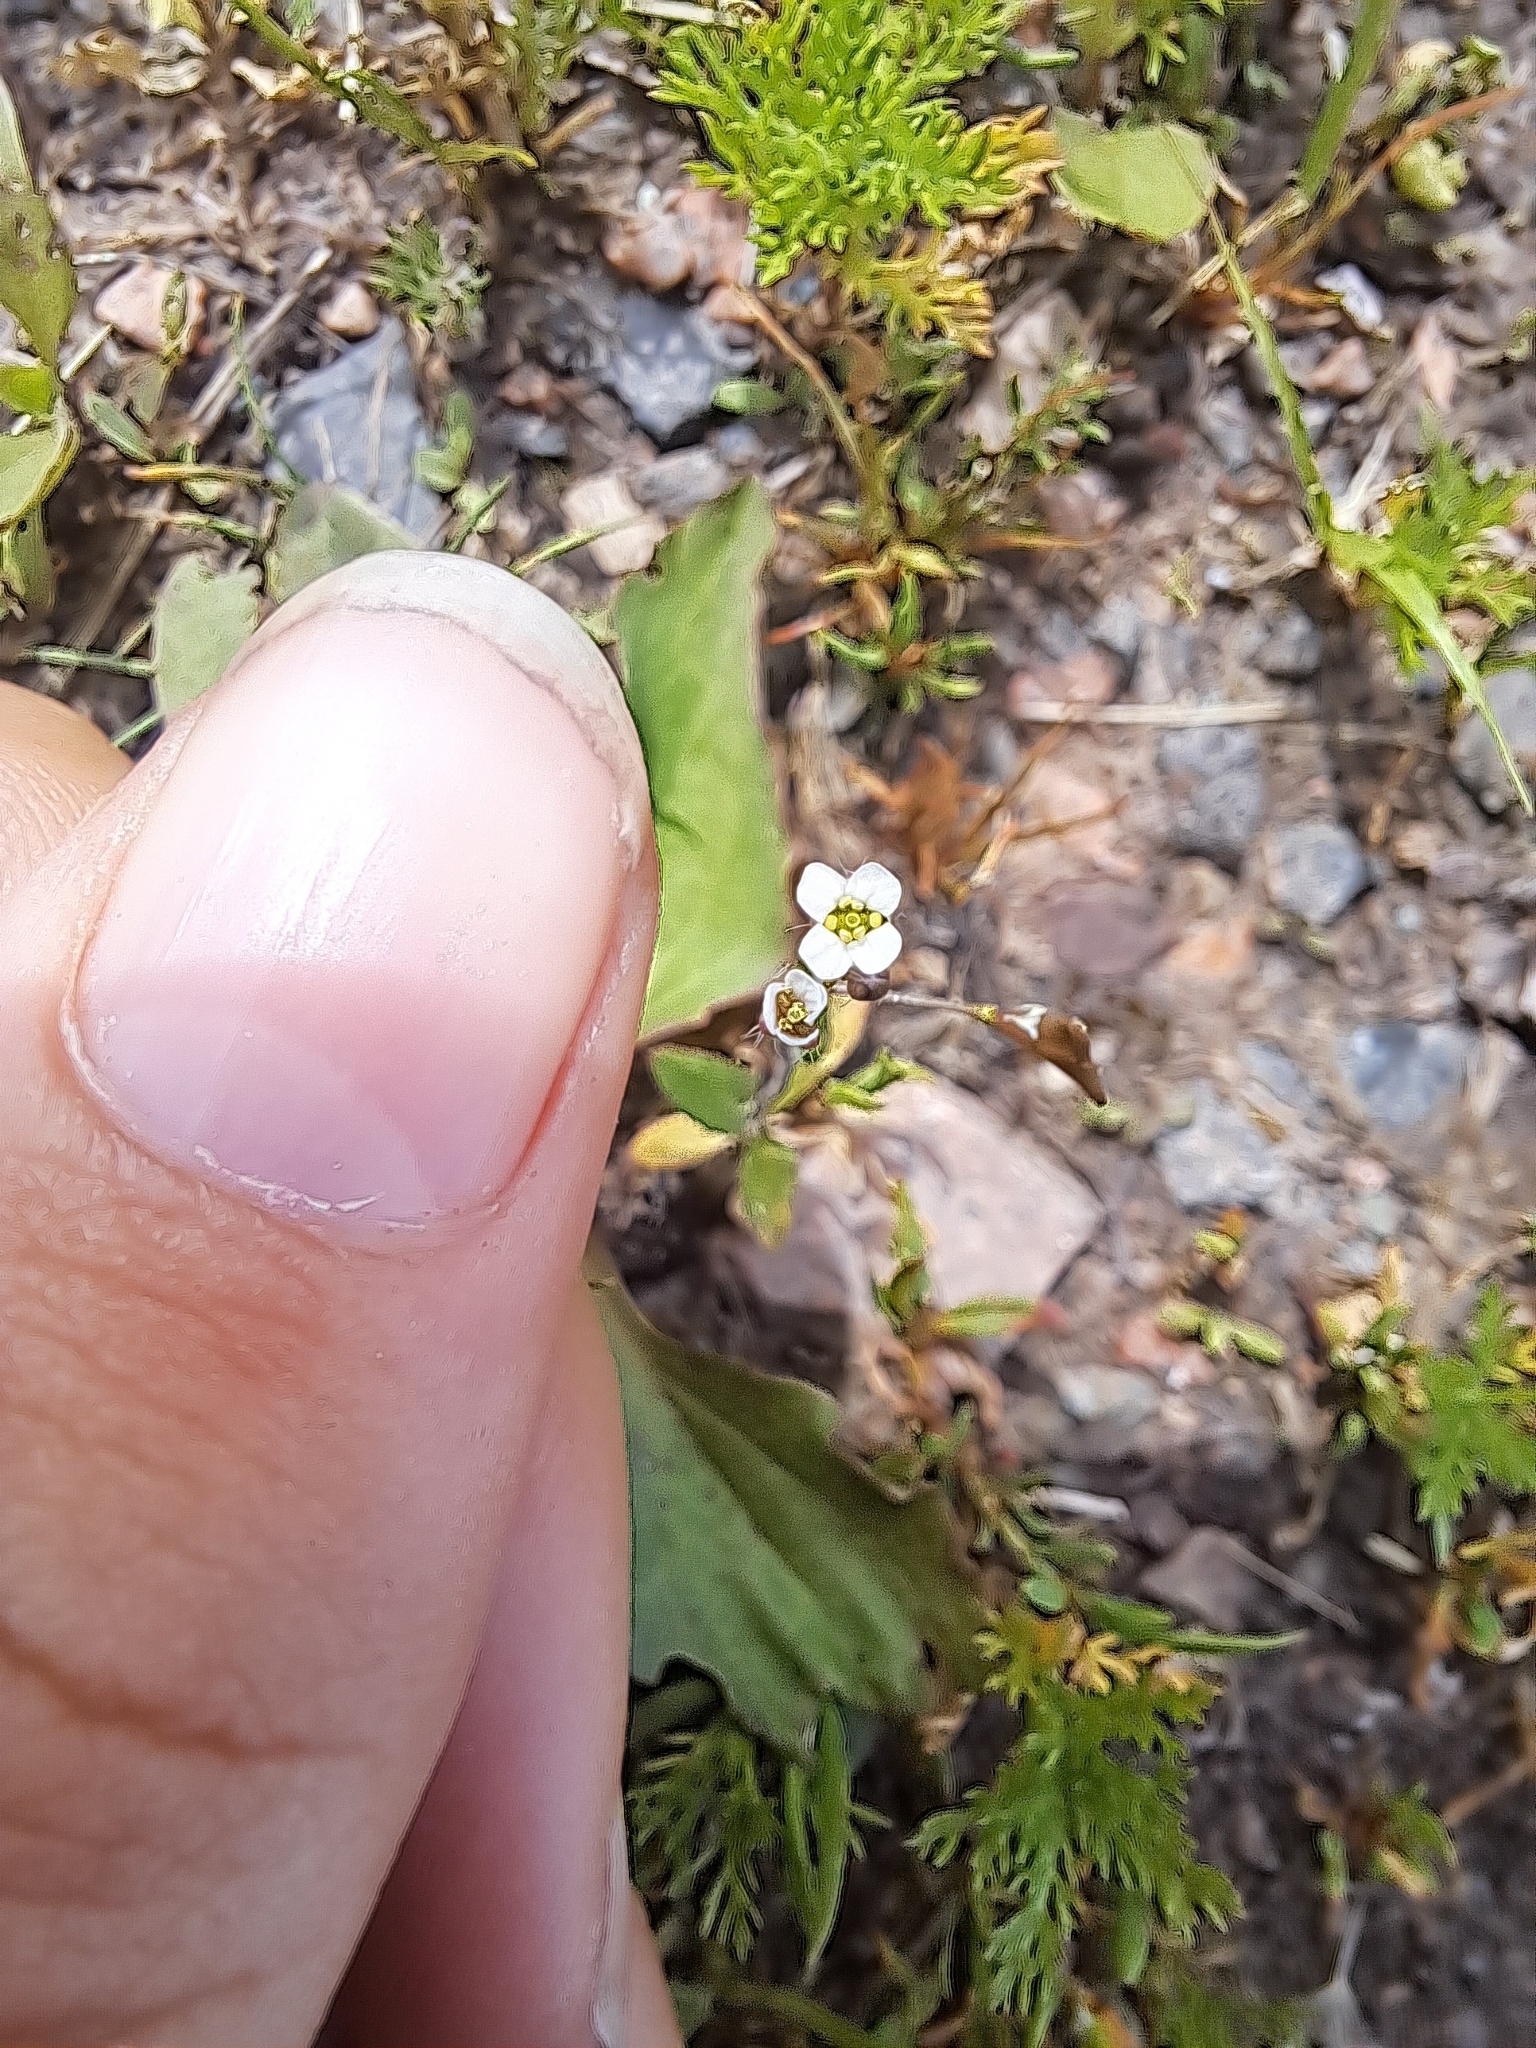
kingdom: Plantae
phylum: Tracheophyta
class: Magnoliopsida
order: Brassicales
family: Brassicaceae
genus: Capsella
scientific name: Capsella bursa-pastoris
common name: Shepherd's purse
